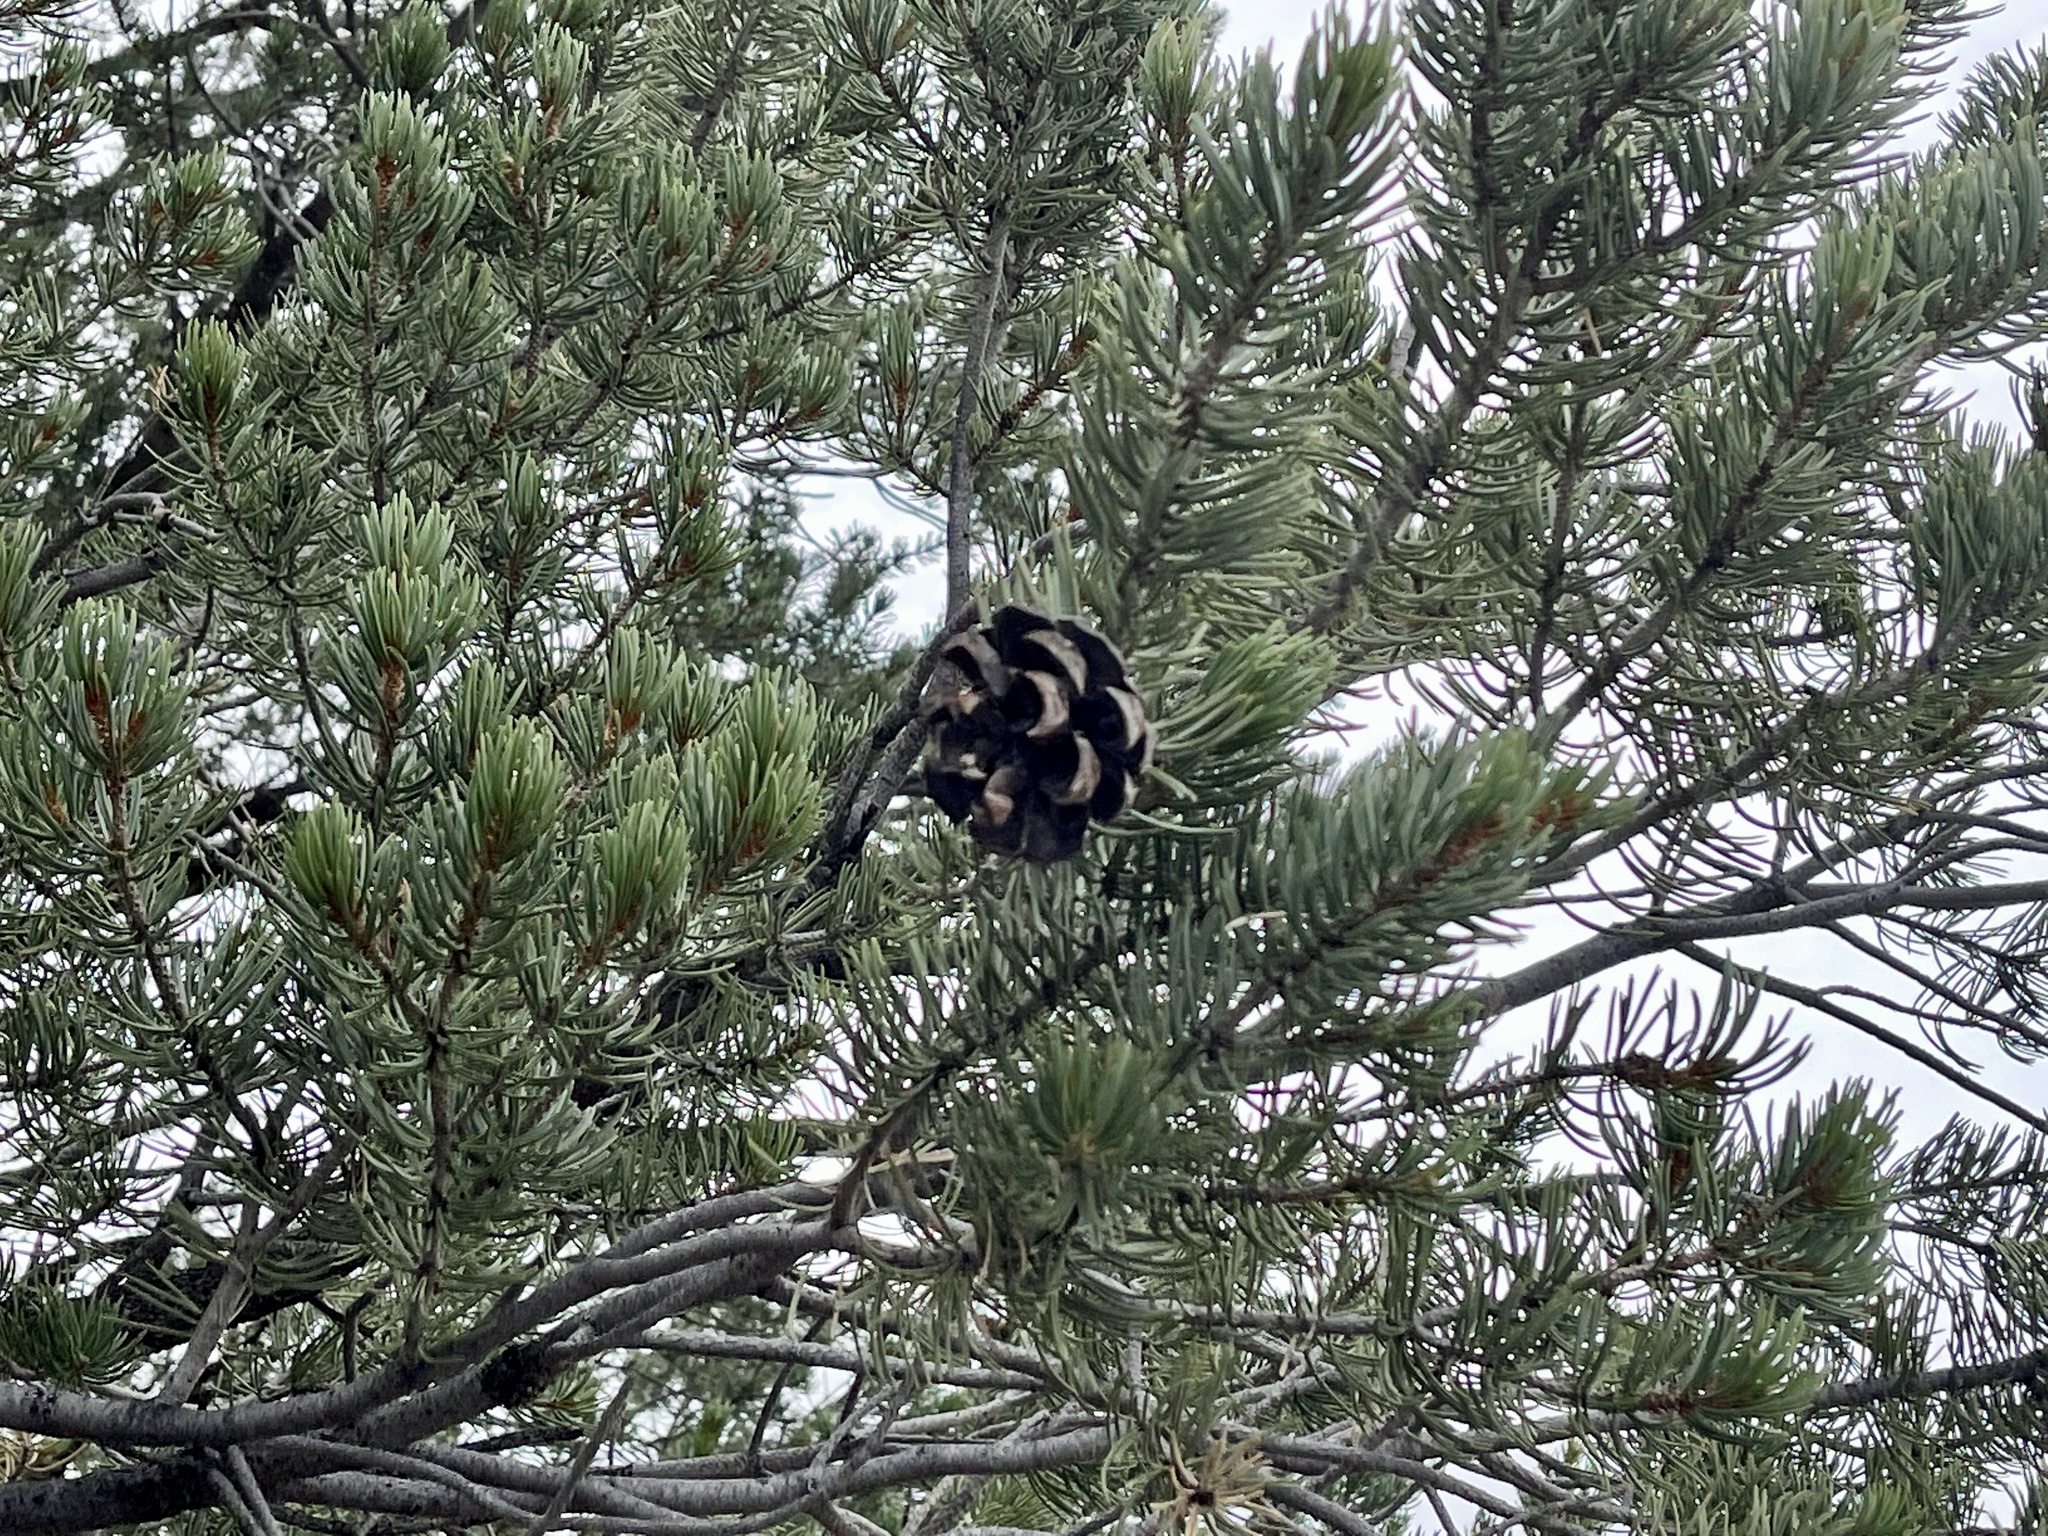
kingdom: Plantae
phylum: Tracheophyta
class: Pinopsida
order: Pinales
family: Pinaceae
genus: Pinus
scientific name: Pinus edulis
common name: Colorado pinyon
